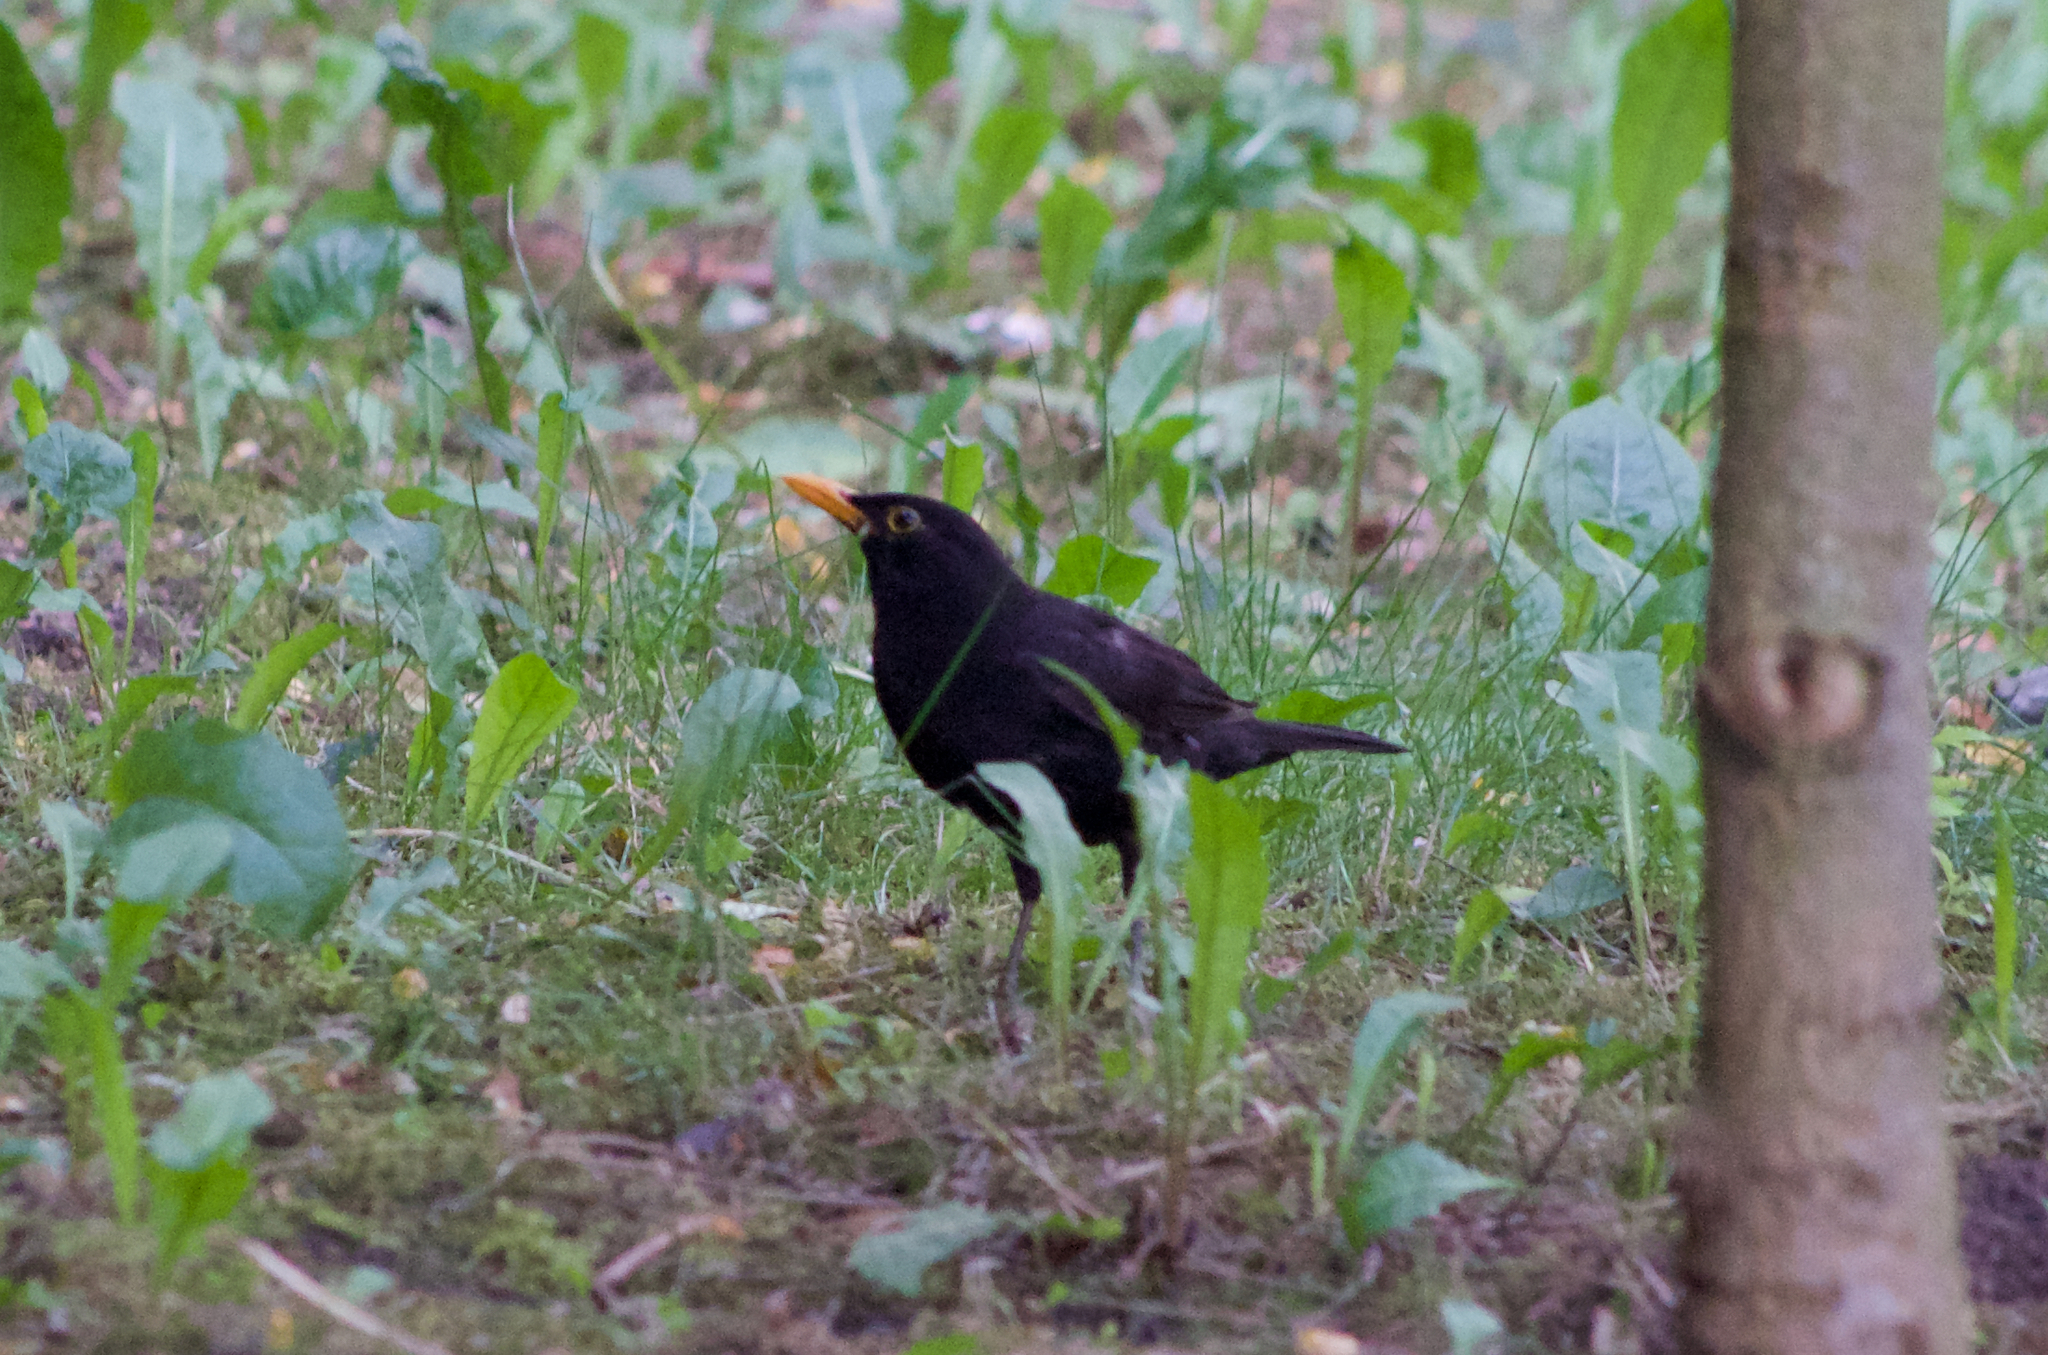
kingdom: Animalia
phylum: Chordata
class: Aves
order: Passeriformes
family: Turdidae
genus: Turdus
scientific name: Turdus merula
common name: Common blackbird
